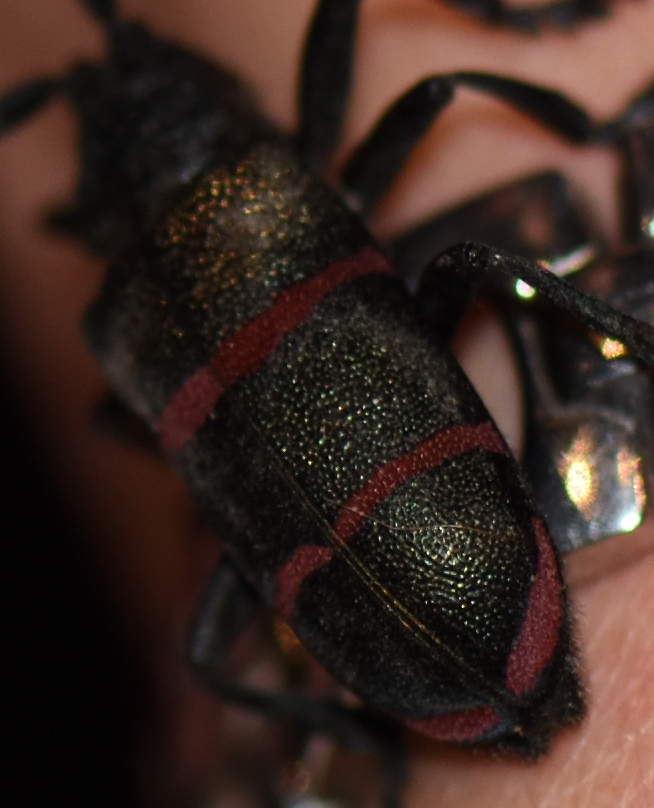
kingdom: Animalia
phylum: Arthropoda
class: Insecta
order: Coleoptera
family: Cerambycidae
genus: Ceroplesis
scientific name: Ceroplesis sumptuosa
